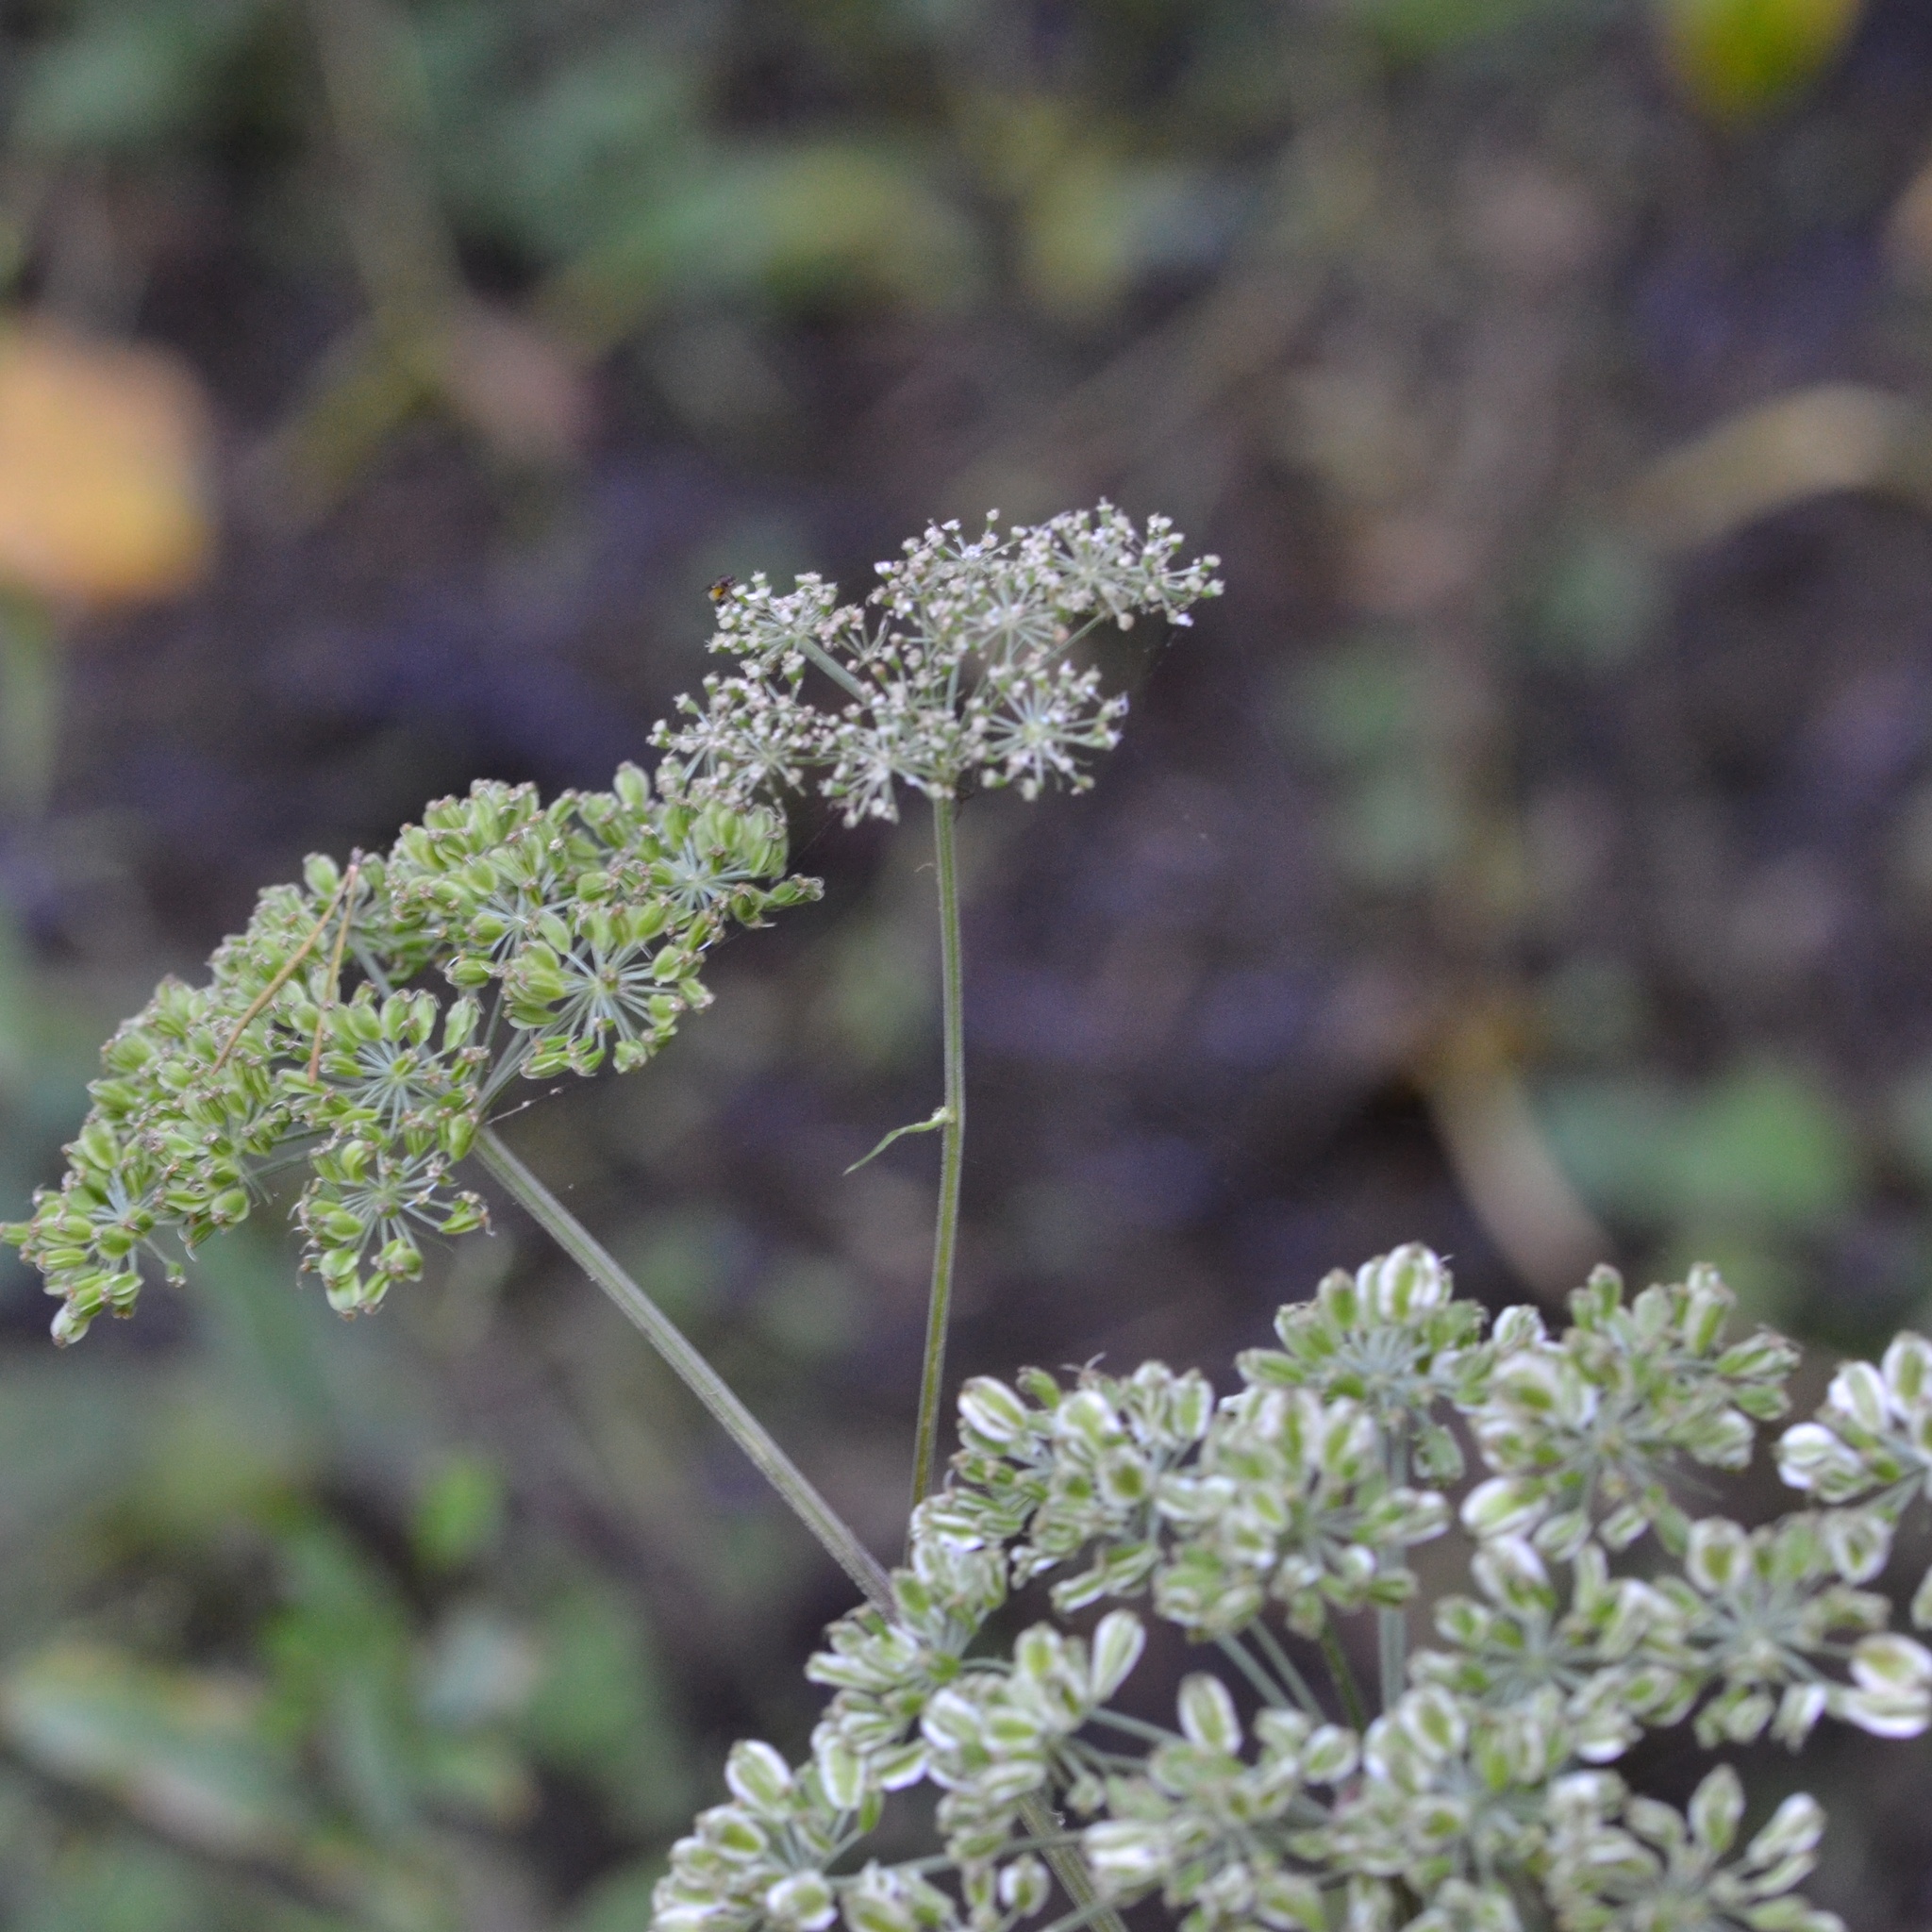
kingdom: Plantae
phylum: Tracheophyta
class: Magnoliopsida
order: Apiales
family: Apiaceae
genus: Angelica
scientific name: Angelica sylvestris
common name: Wild angelica
